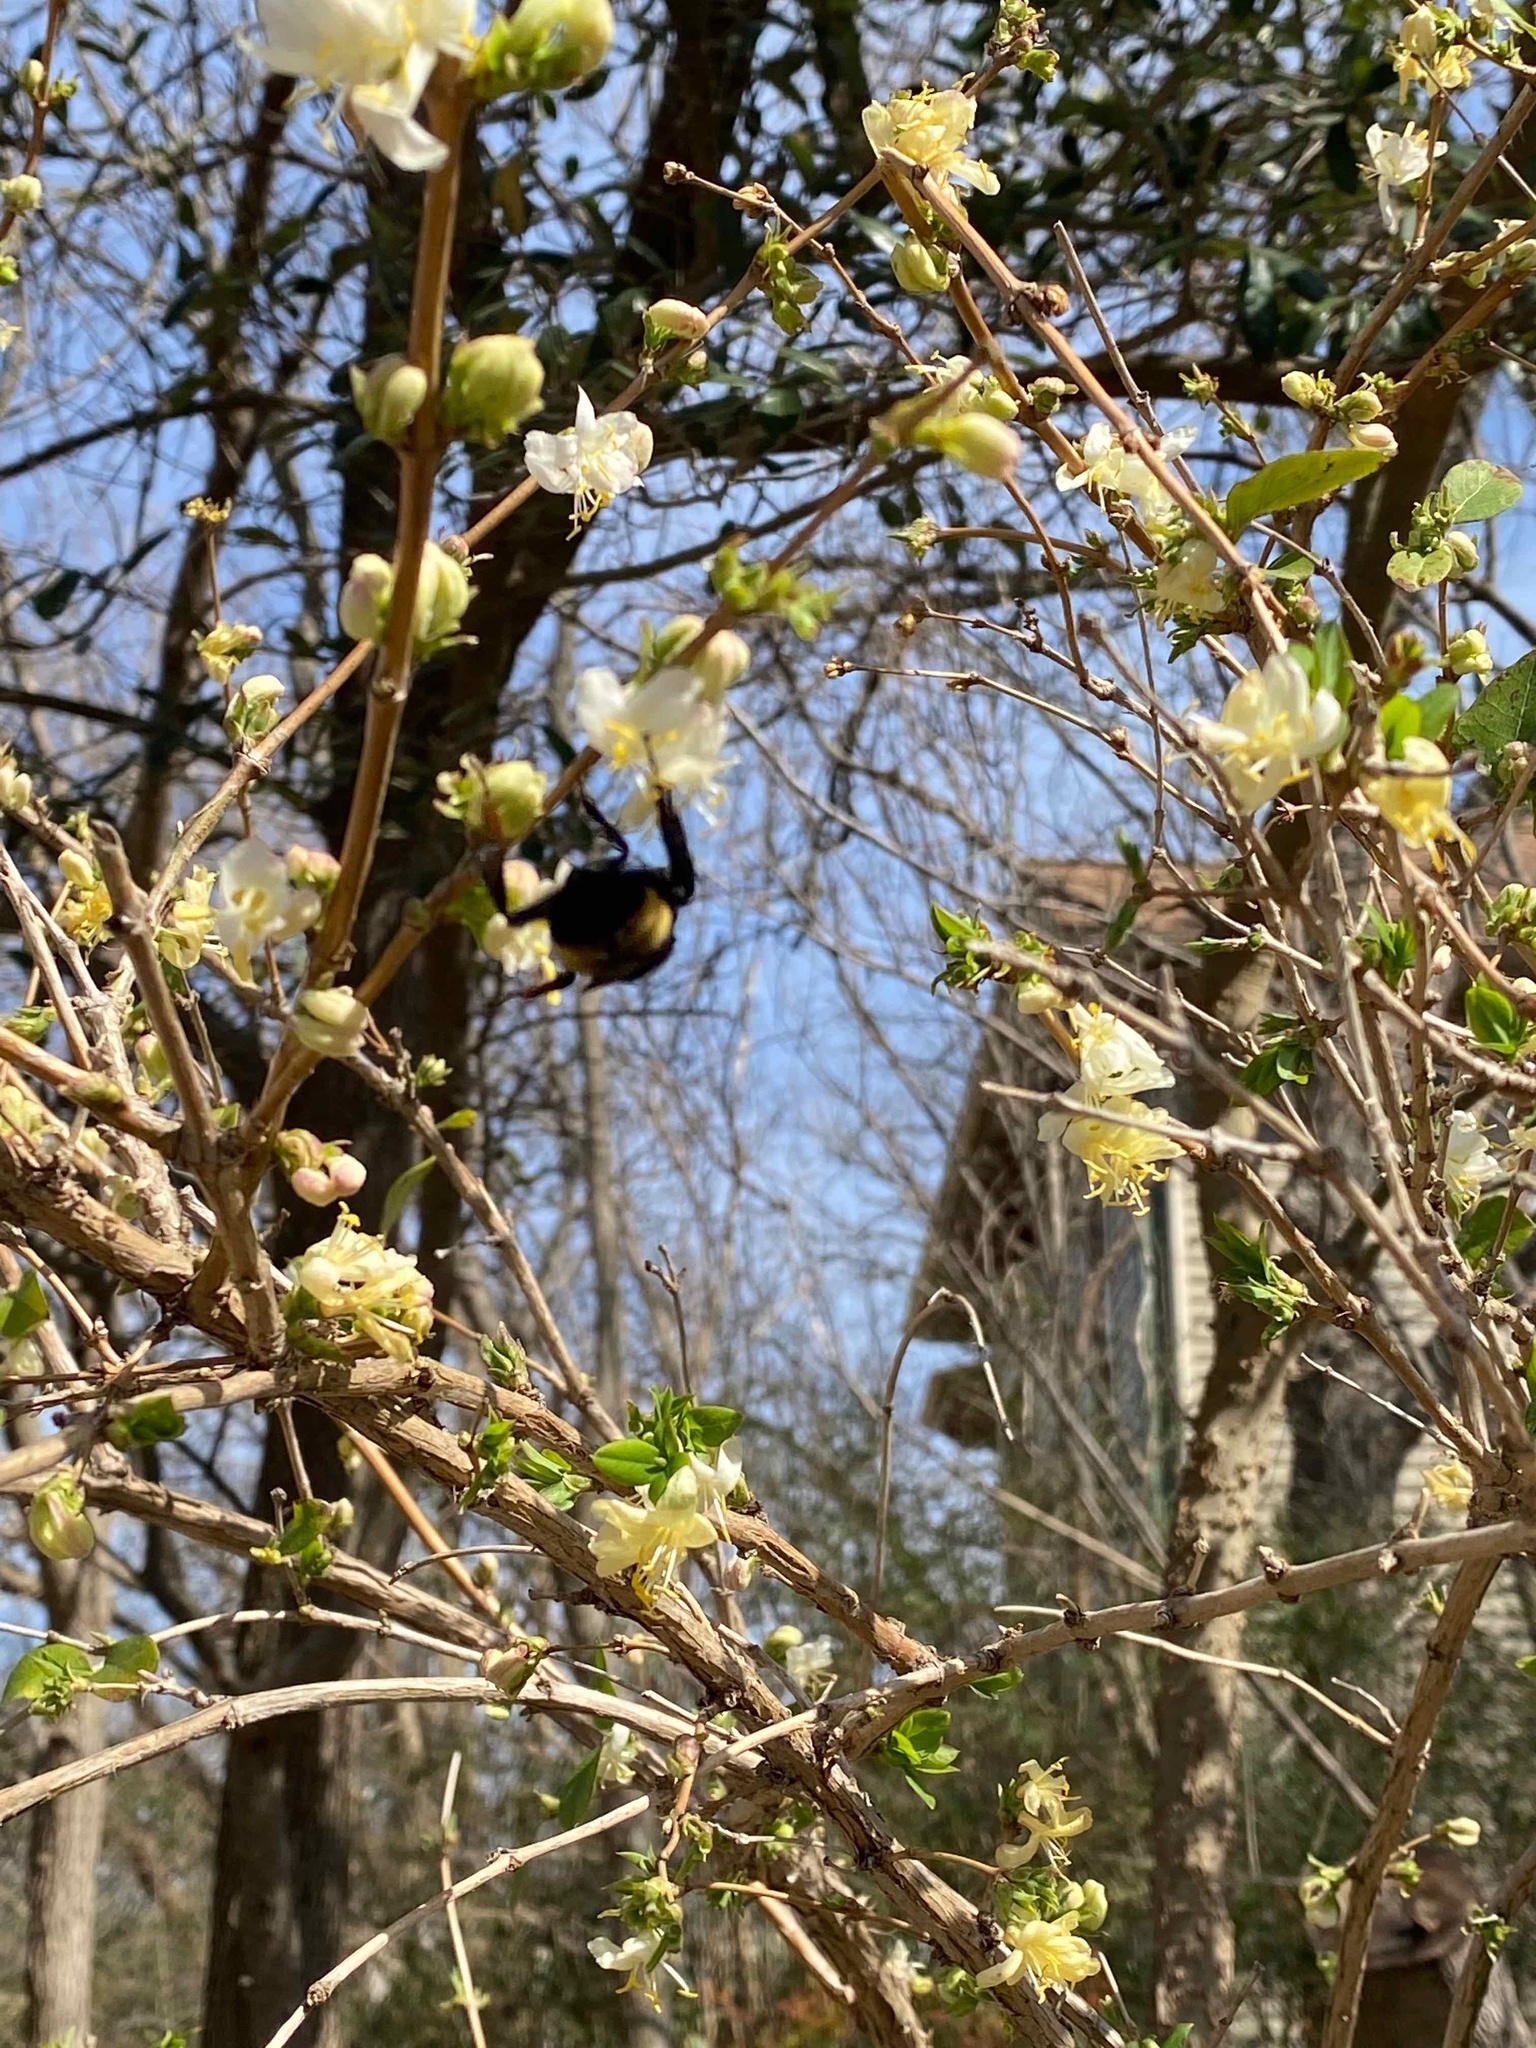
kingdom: Animalia
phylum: Arthropoda
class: Insecta
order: Hymenoptera
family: Apidae
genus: Bombus
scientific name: Bombus pensylvanicus
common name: Bumble bee
